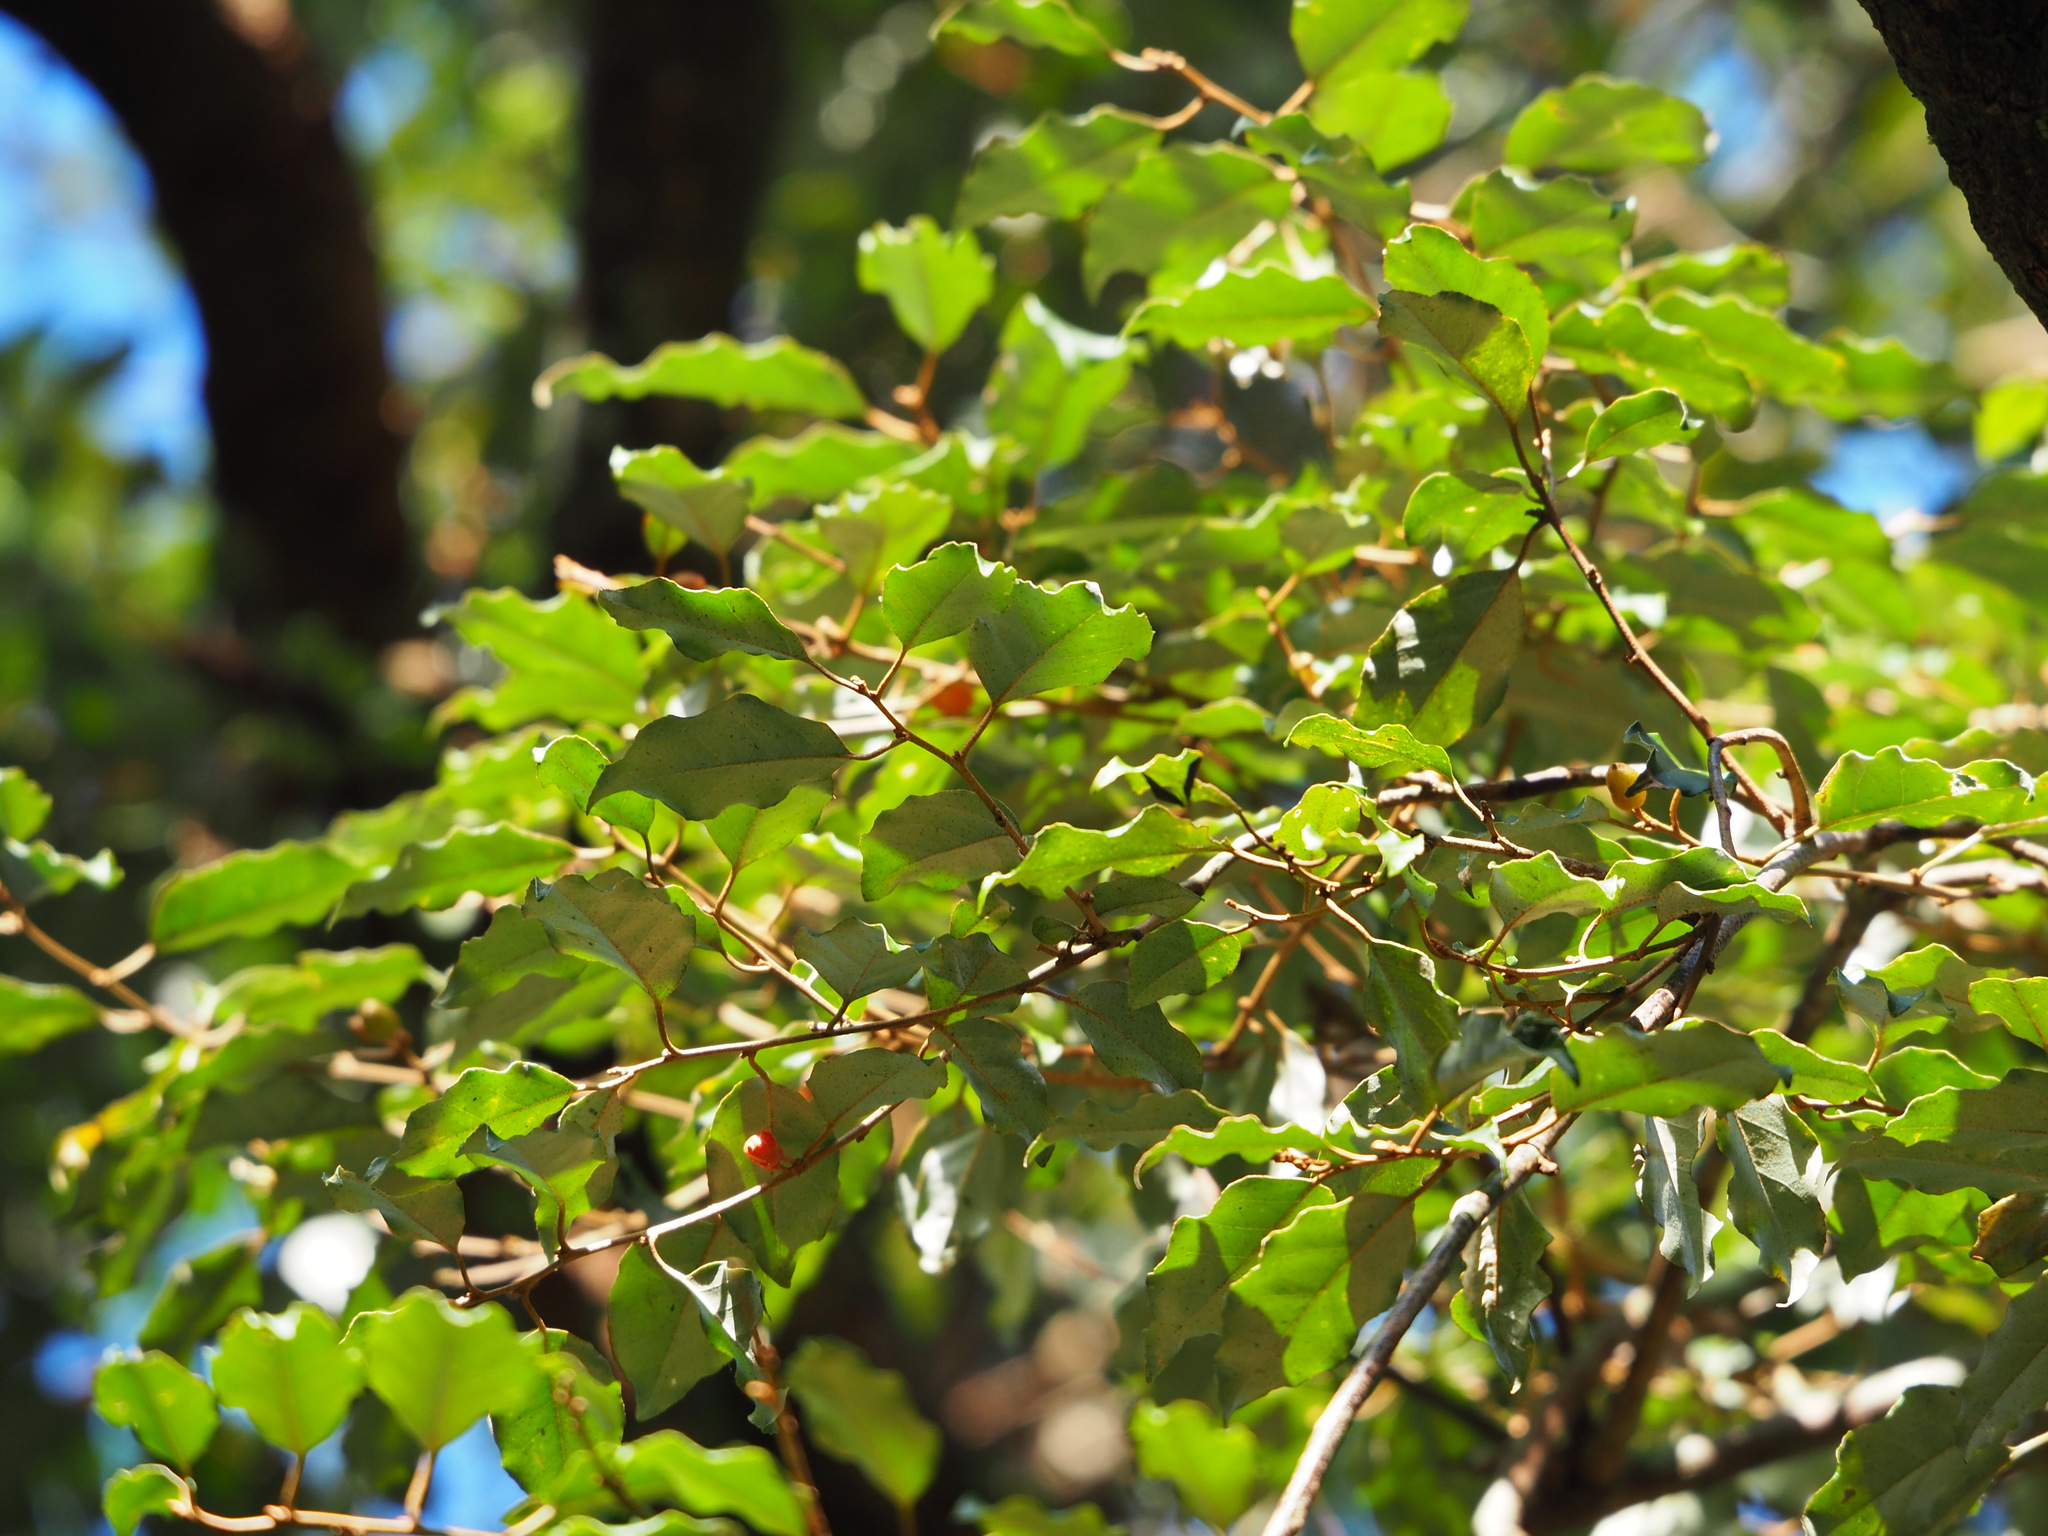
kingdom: Plantae
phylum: Tracheophyta
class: Magnoliopsida
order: Rosales
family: Elaeagnaceae
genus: Elaeagnus
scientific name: Elaeagnus thunbergii
